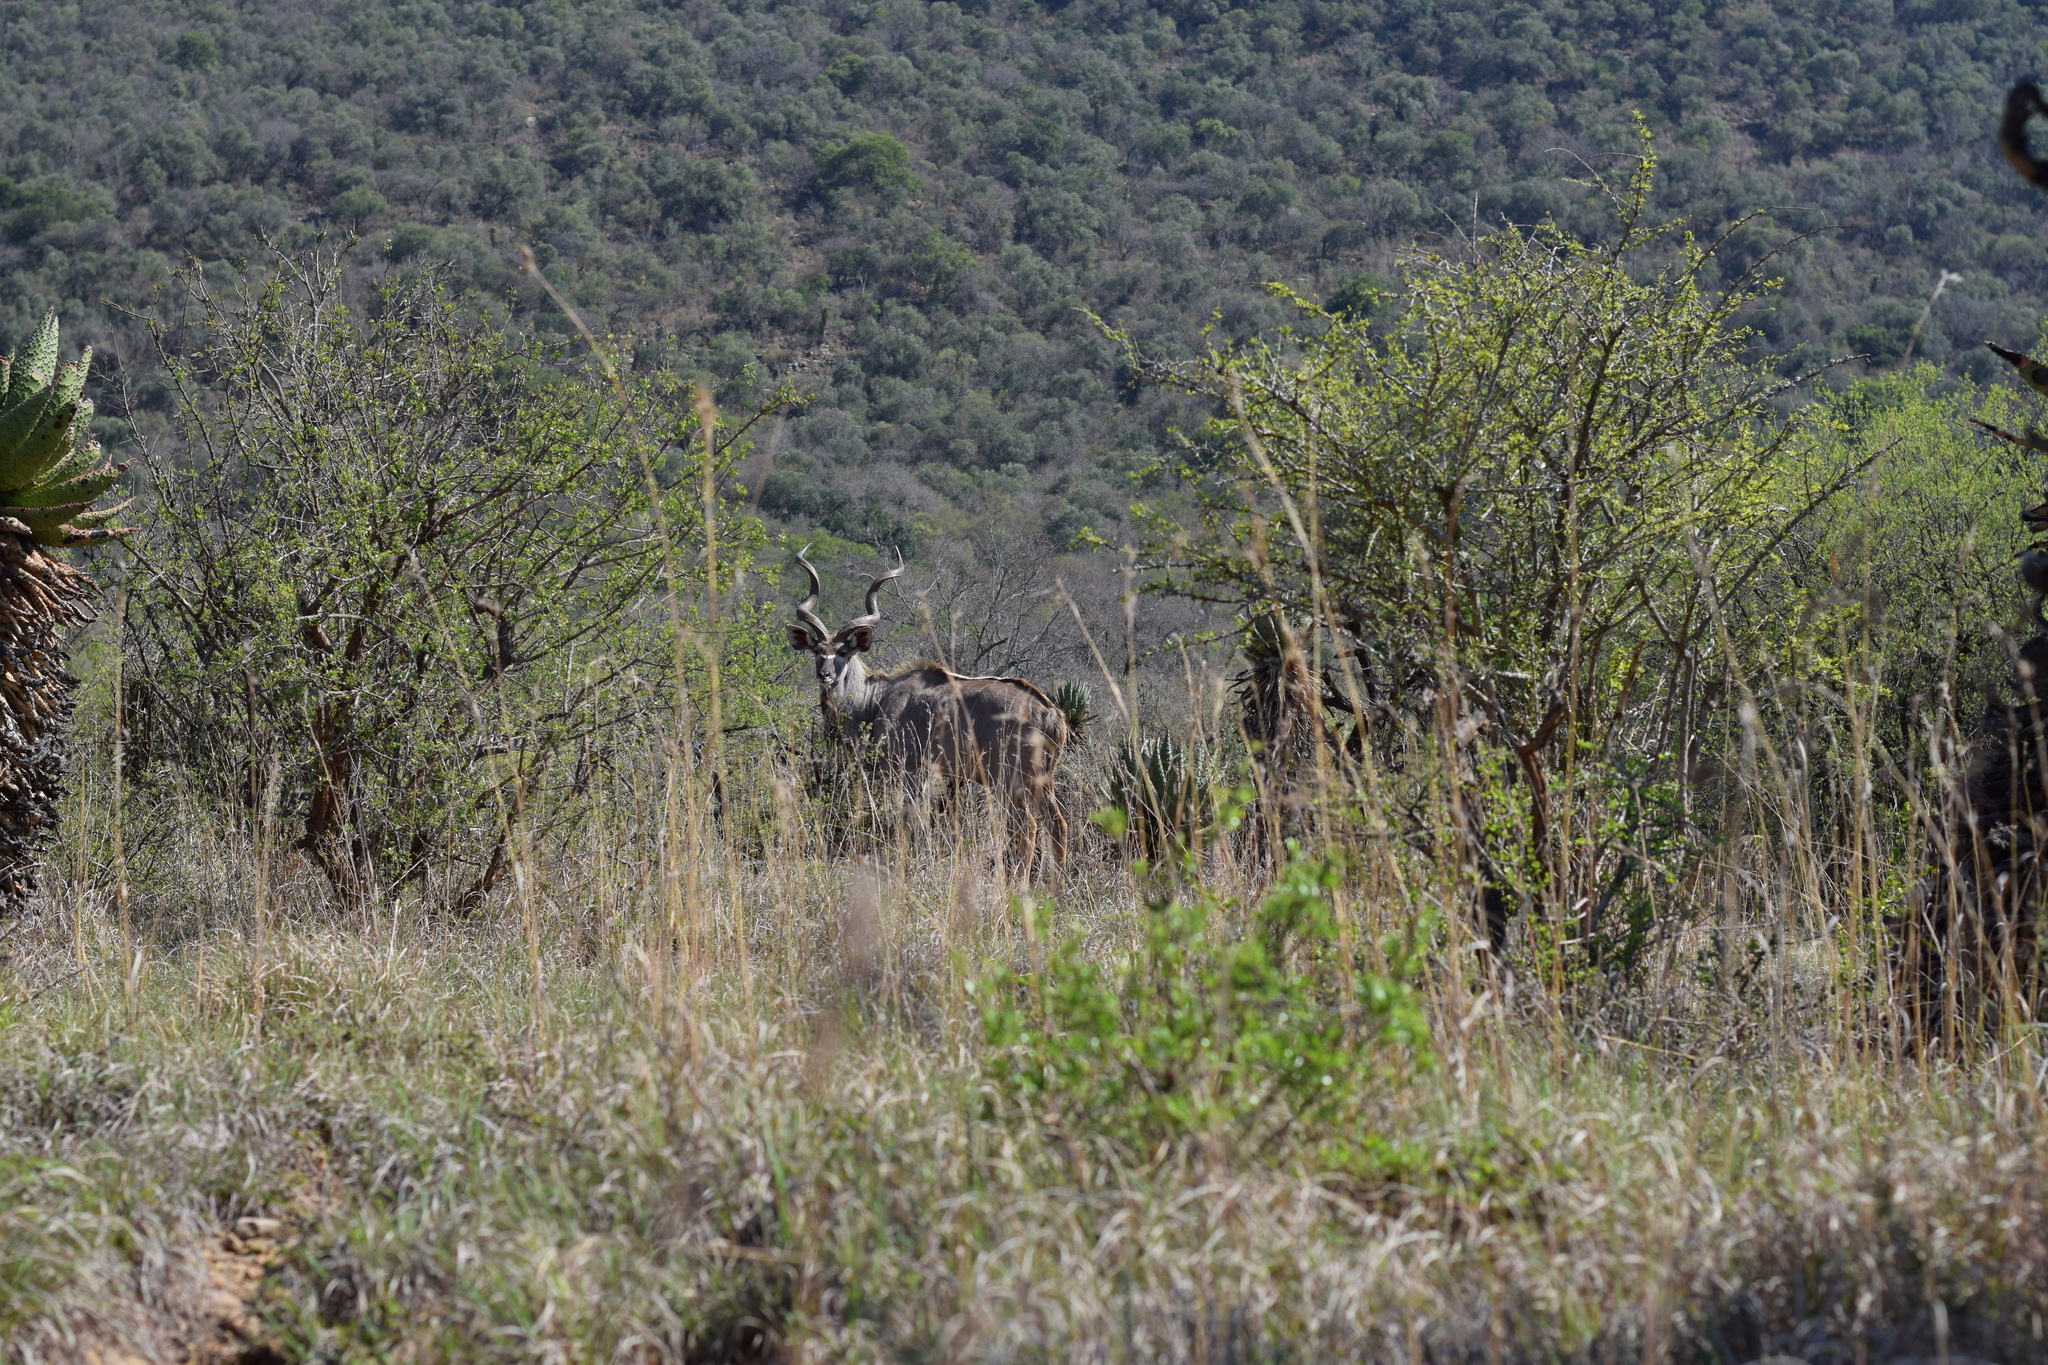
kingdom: Animalia
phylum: Chordata
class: Mammalia
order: Artiodactyla
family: Bovidae
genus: Tragelaphus
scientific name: Tragelaphus strepsiceros
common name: Greater kudu
